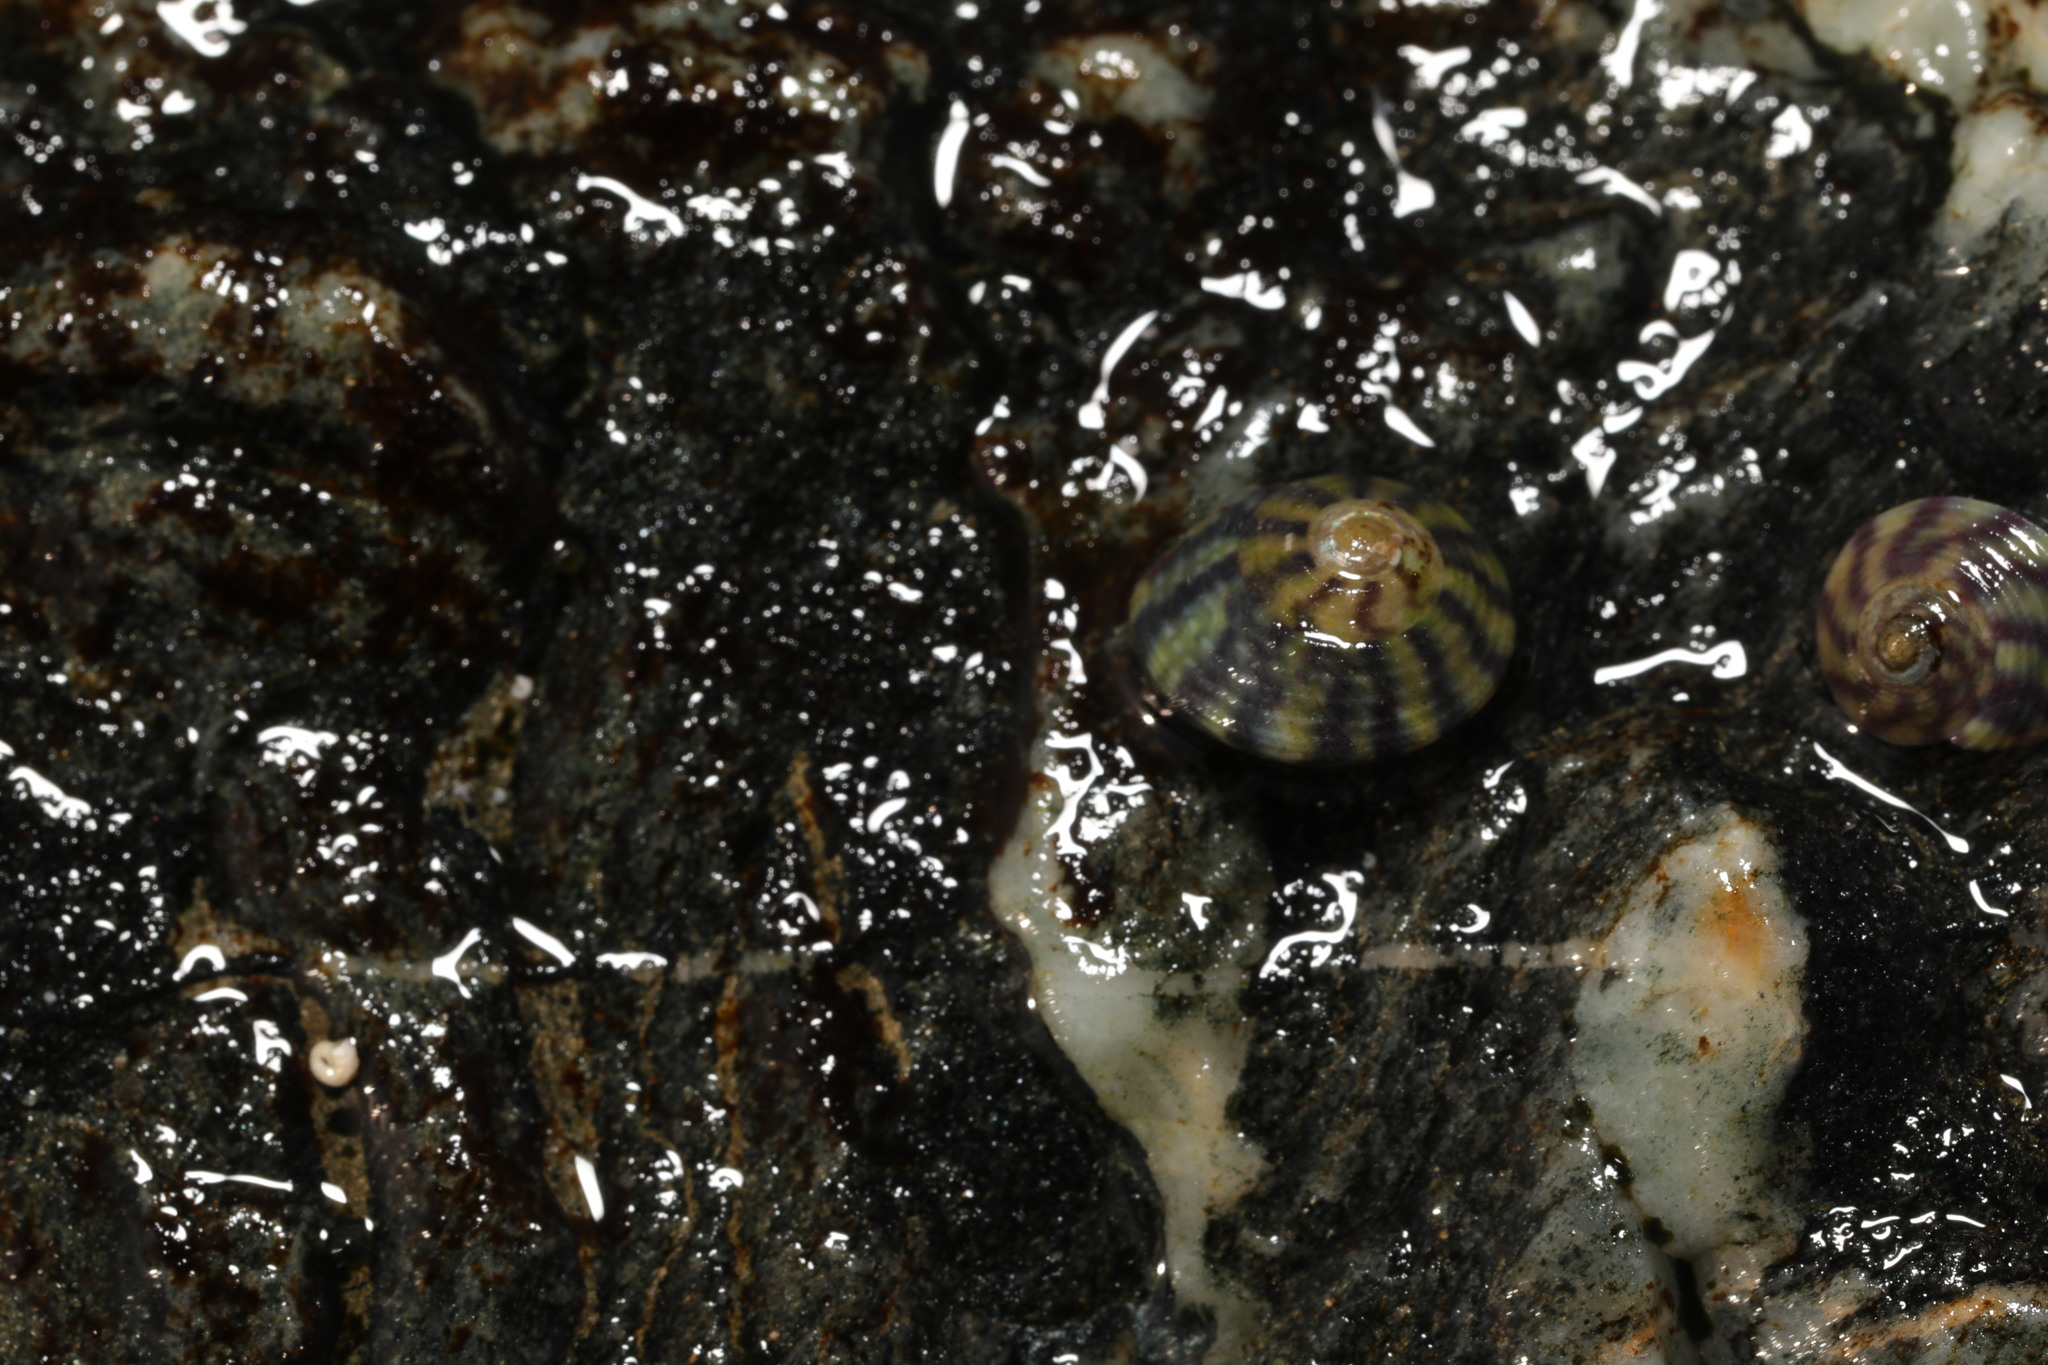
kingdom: Animalia
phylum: Mollusca
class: Gastropoda
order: Trochida
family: Trochidae
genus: Steromphala
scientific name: Steromphala umbilicalis
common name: Flat top shell
